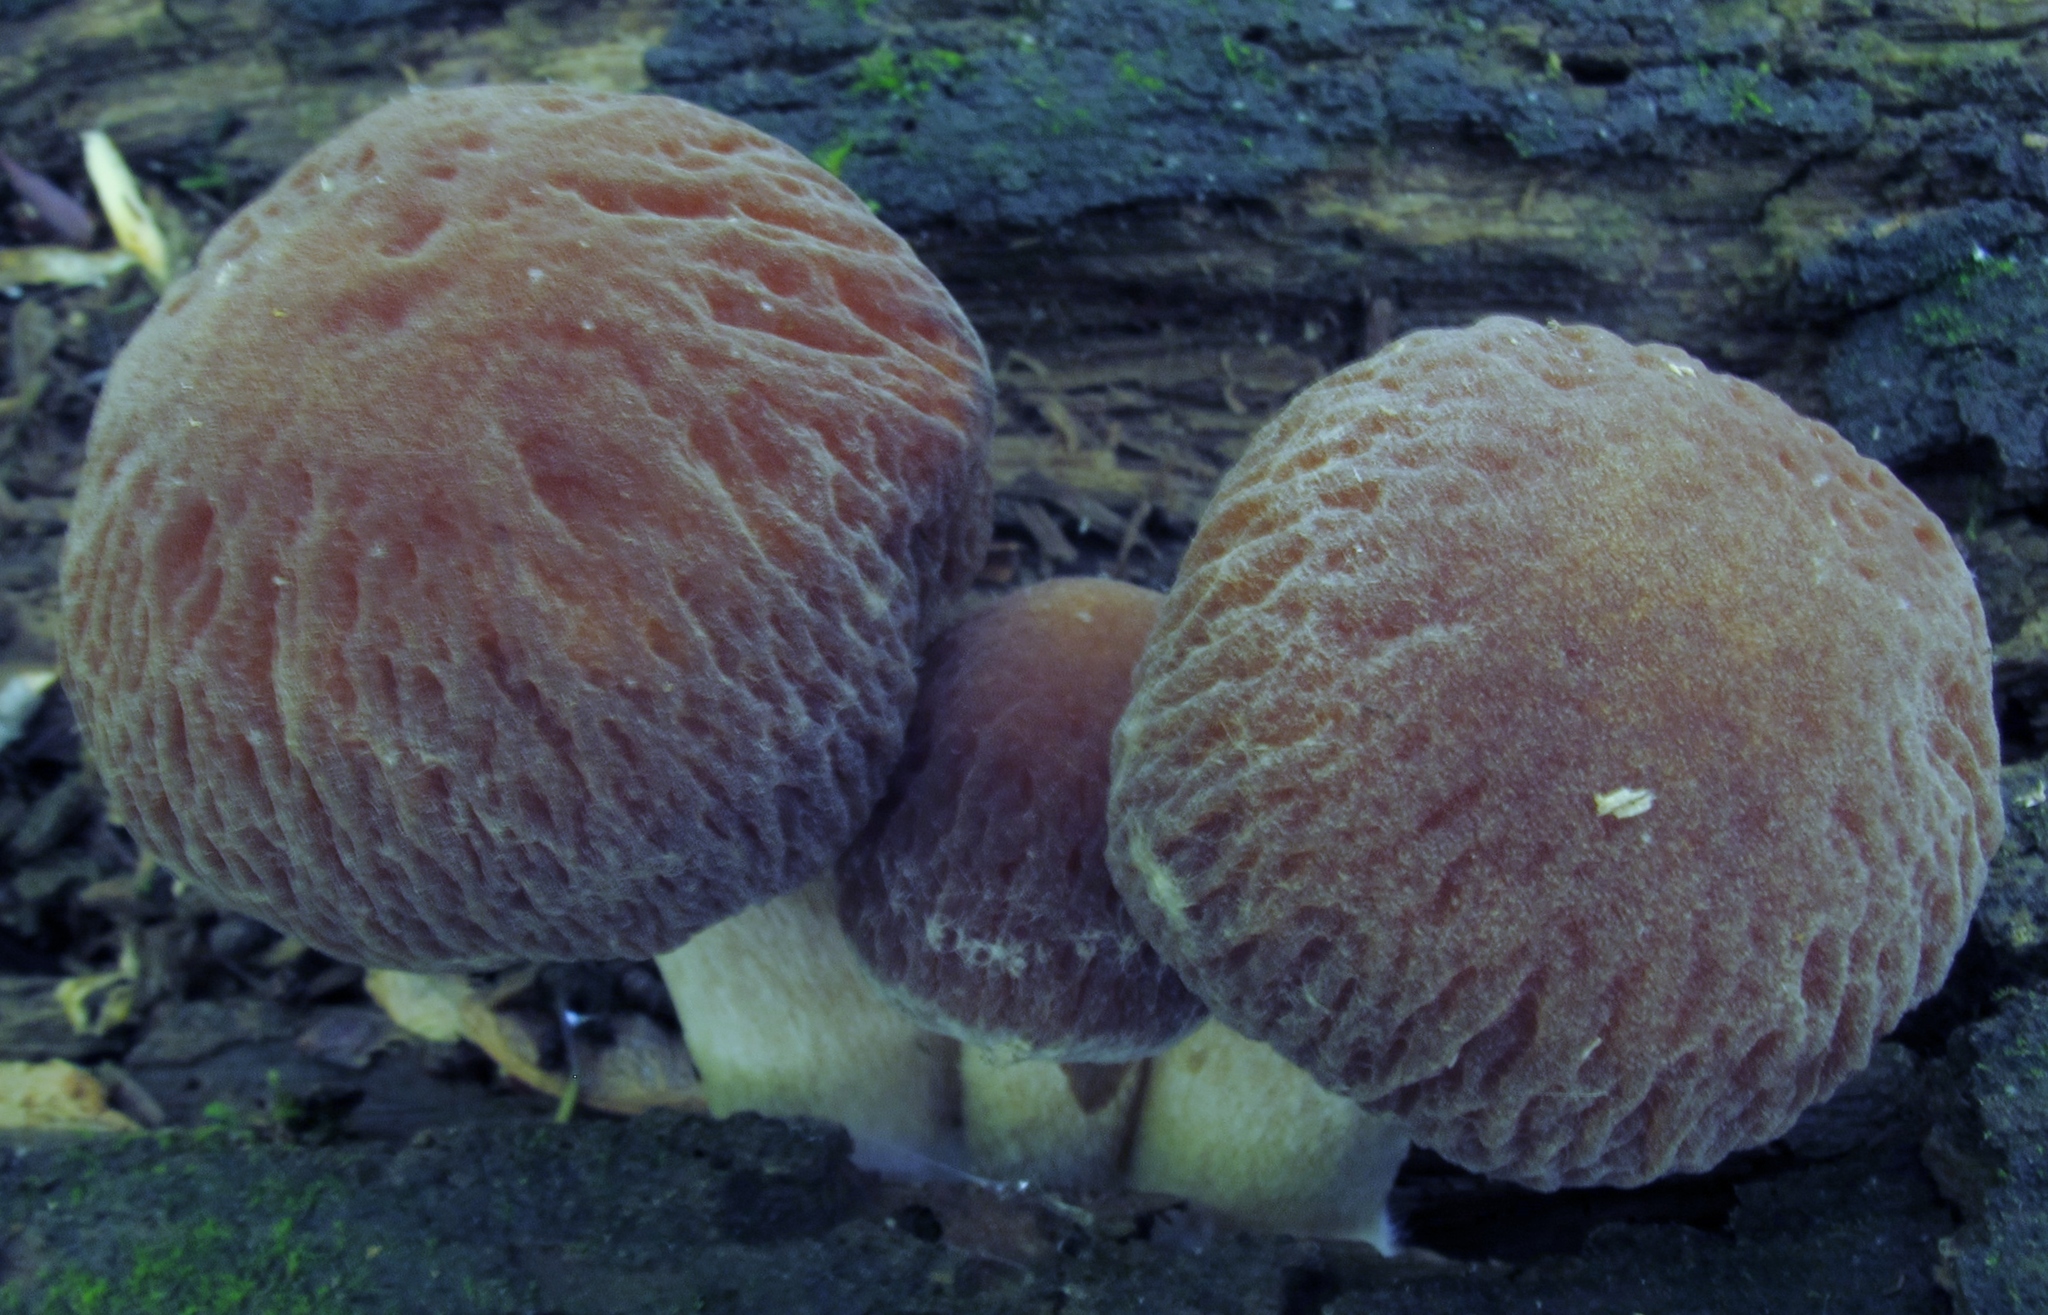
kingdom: Fungi
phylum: Basidiomycota
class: Agaricomycetes
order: Agaricales
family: Psathyrellaceae
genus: Typhrasa
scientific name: Typhrasa gossypina
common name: Wrinkled psathyrella
